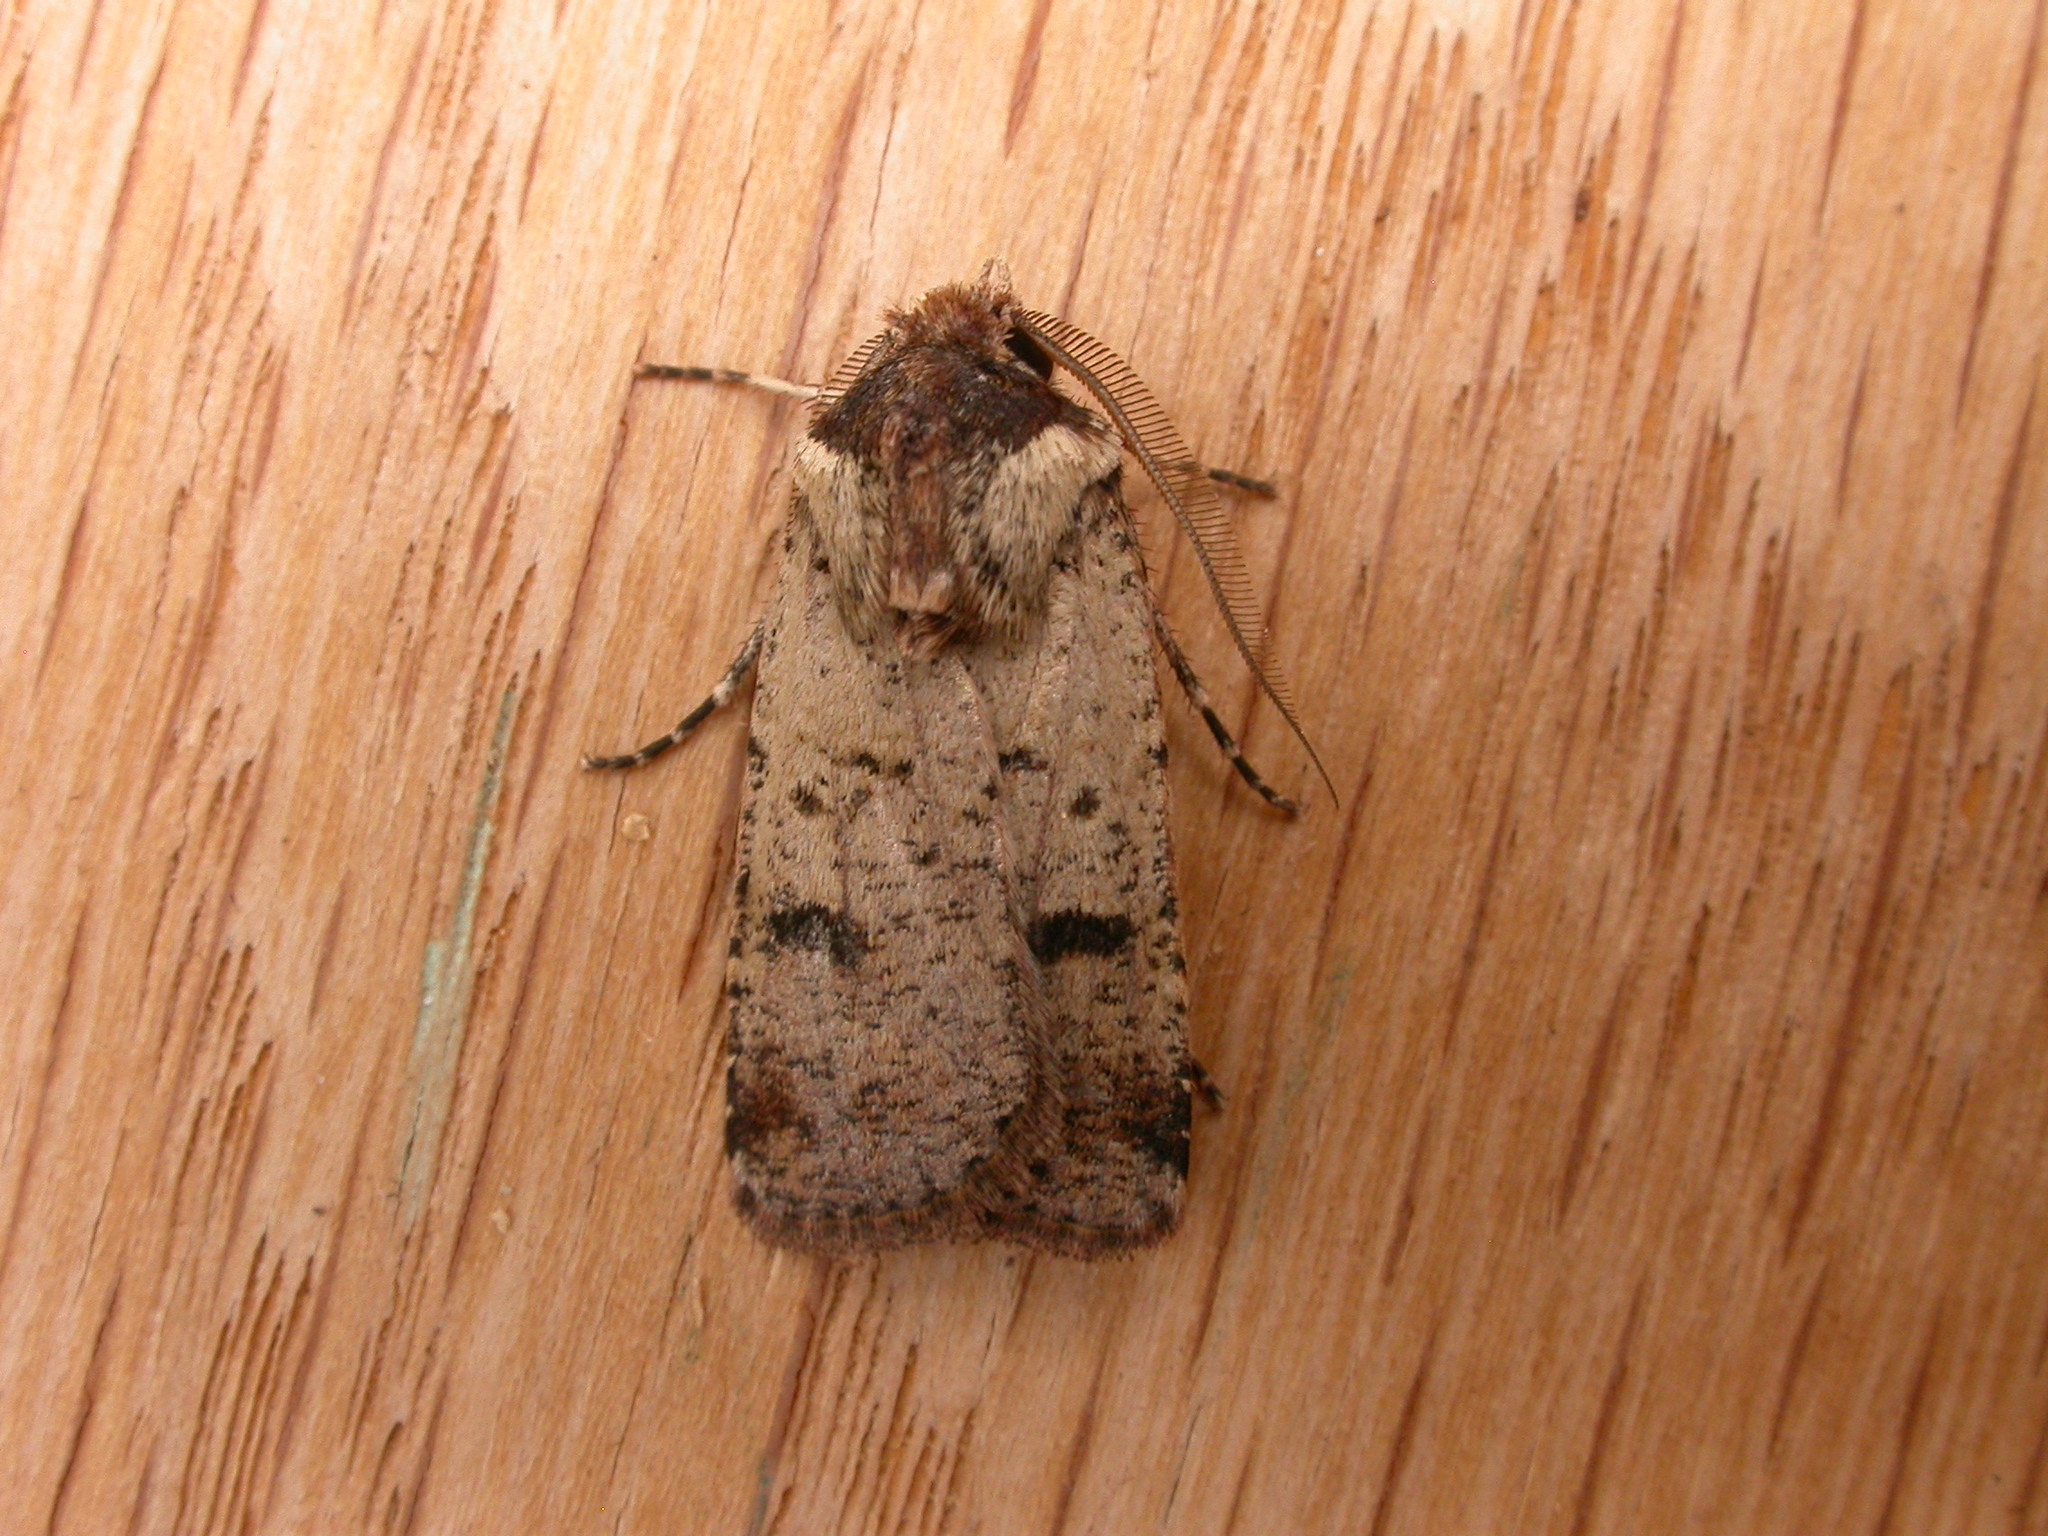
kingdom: Animalia
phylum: Arthropoda
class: Insecta
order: Lepidoptera
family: Noctuidae
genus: Agrotis
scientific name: Agrotis porphyricollis
